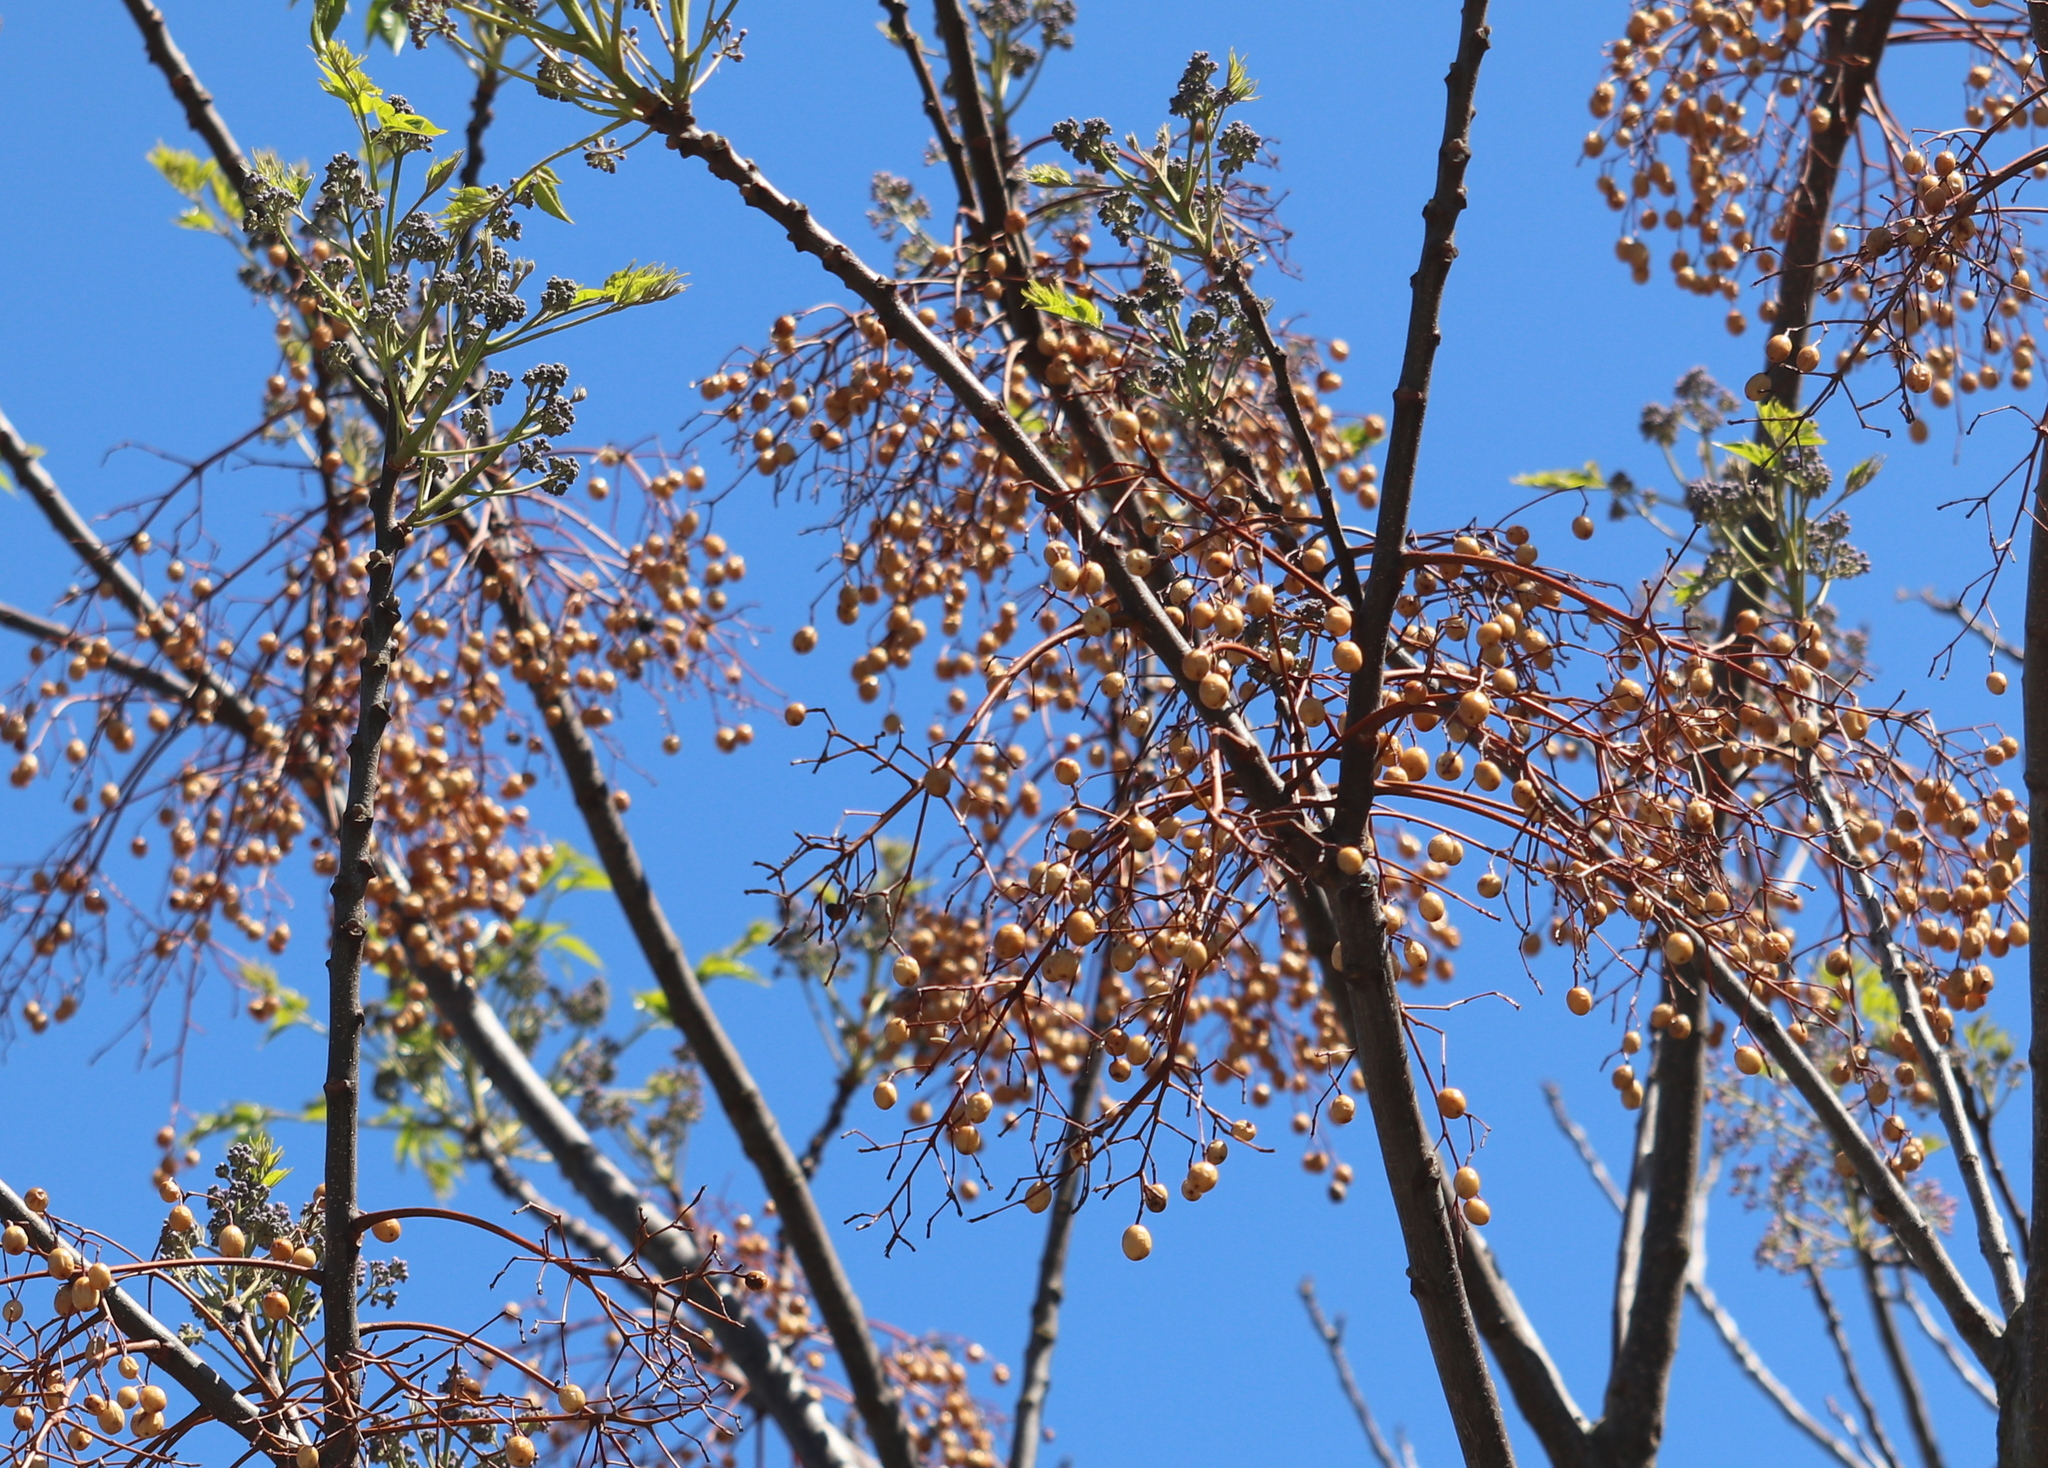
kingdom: Plantae
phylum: Tracheophyta
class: Magnoliopsida
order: Sapindales
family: Meliaceae
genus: Melia
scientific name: Melia azedarach
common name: Chinaberrytree
